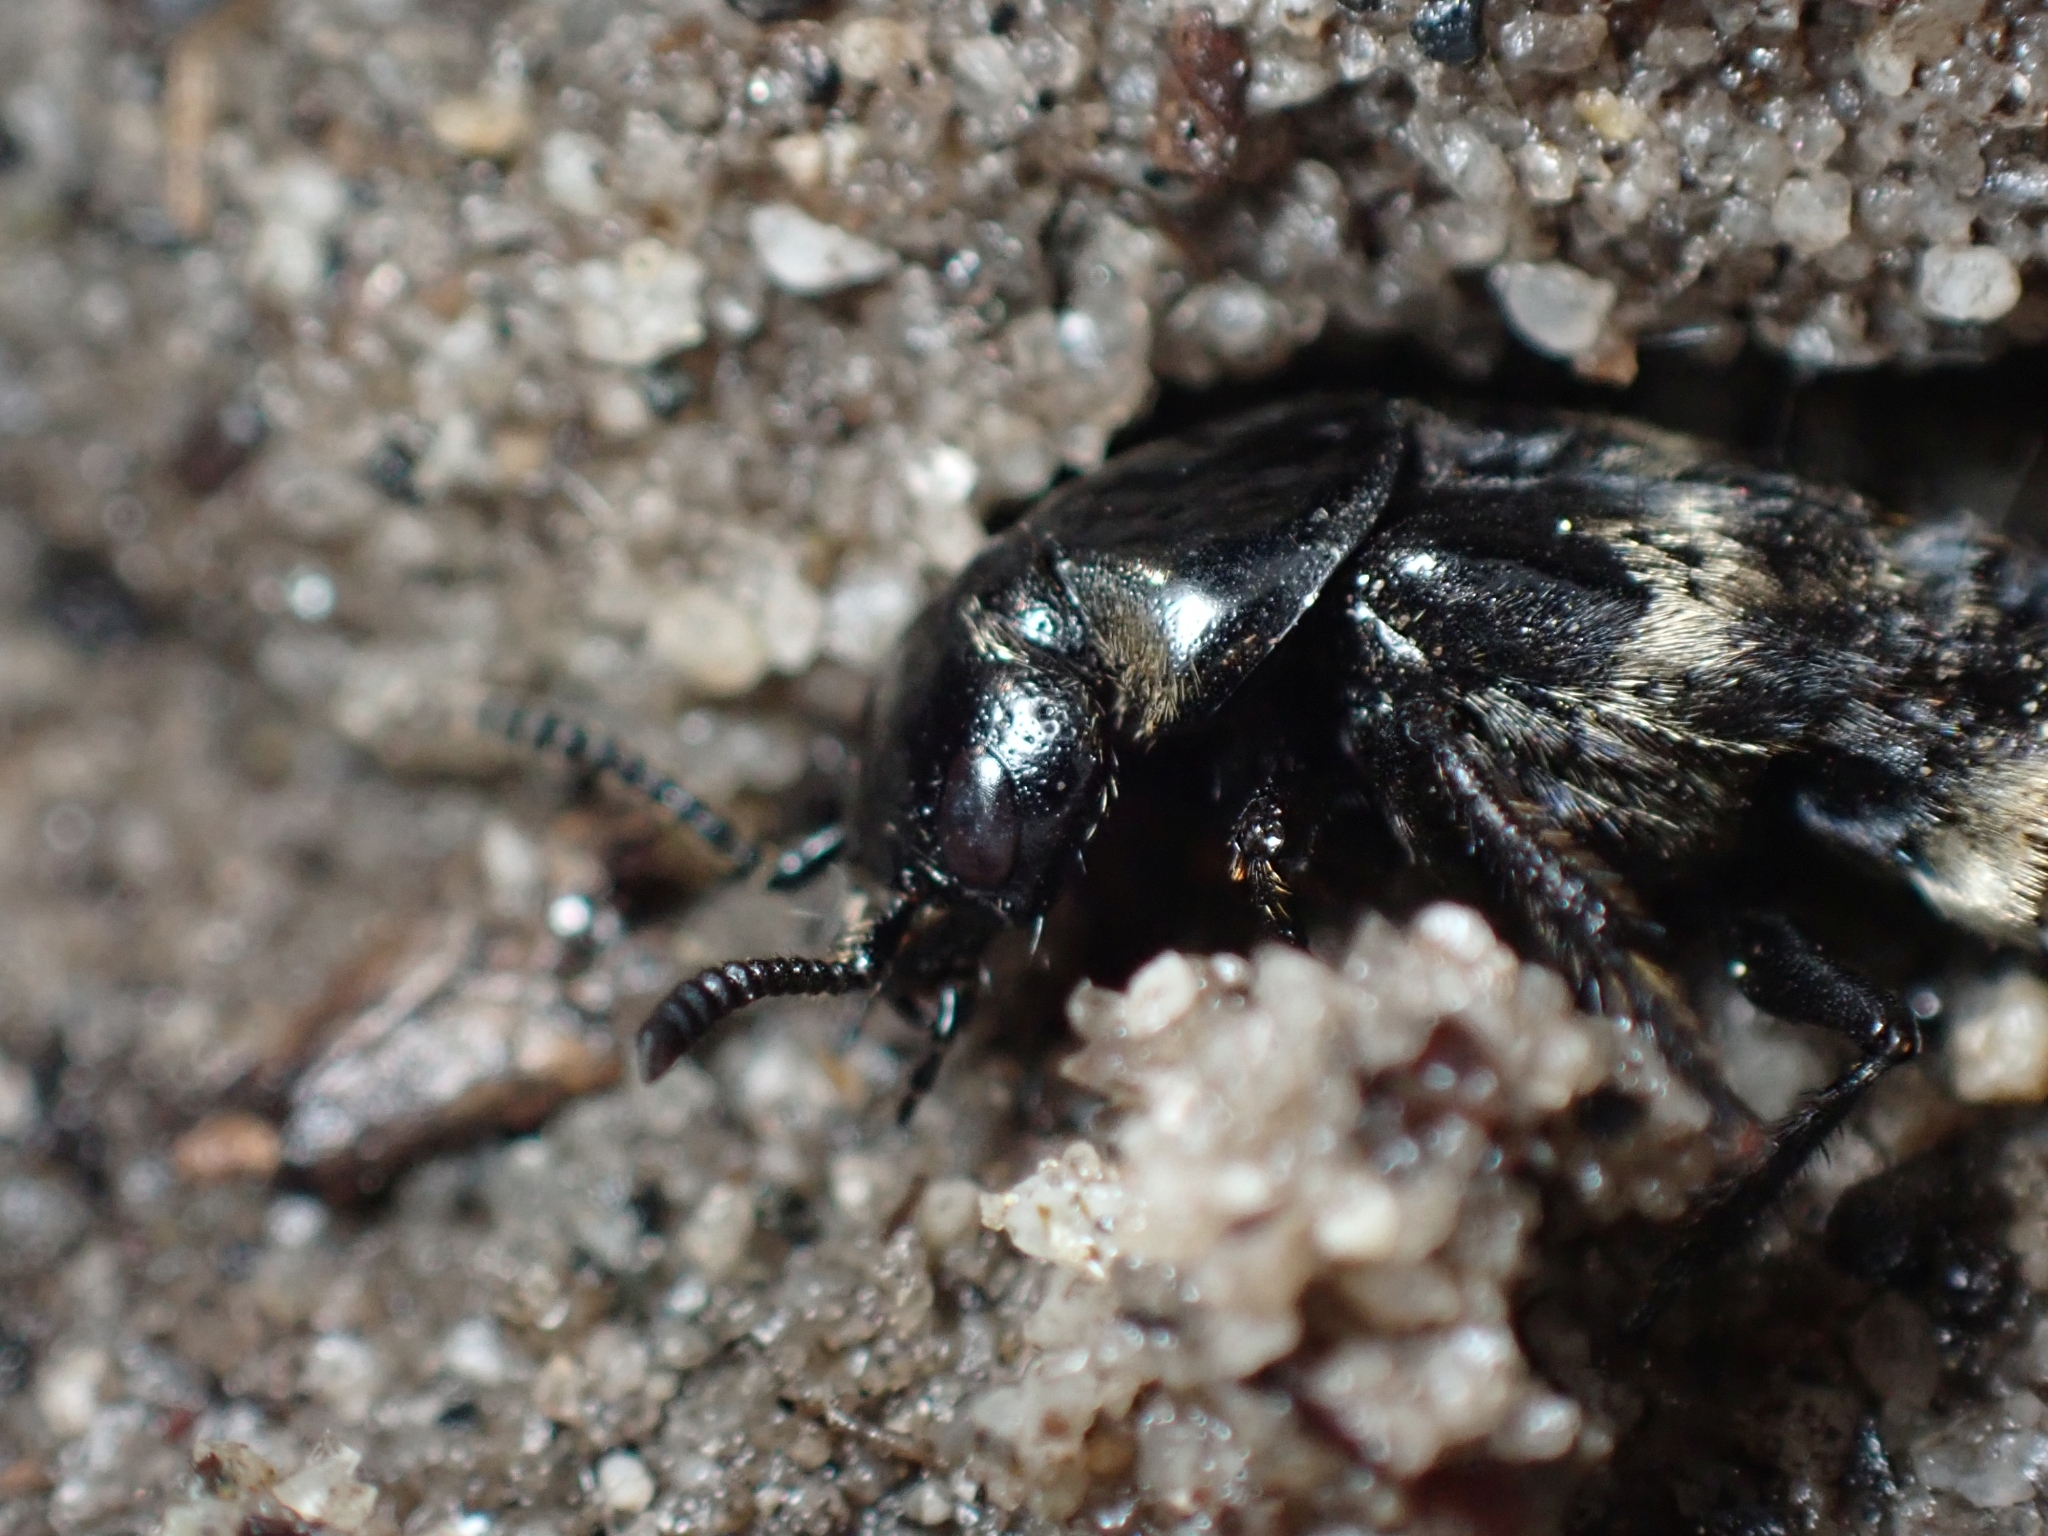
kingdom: Animalia
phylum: Arthropoda
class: Insecta
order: Coleoptera
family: Staphylinidae
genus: Creophilus
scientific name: Creophilus maxillosus
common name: Hairy rove beetle
